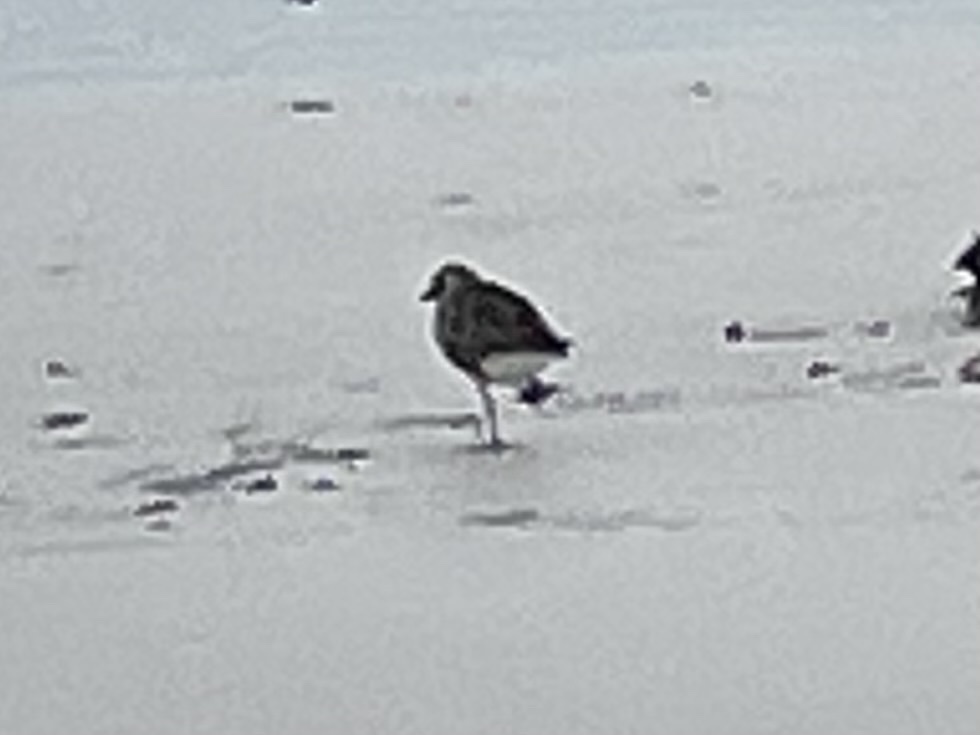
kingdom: Animalia
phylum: Chordata
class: Aves
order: Charadriiformes
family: Charadriidae
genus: Pluvialis
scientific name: Pluvialis squatarola
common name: Grey plover
